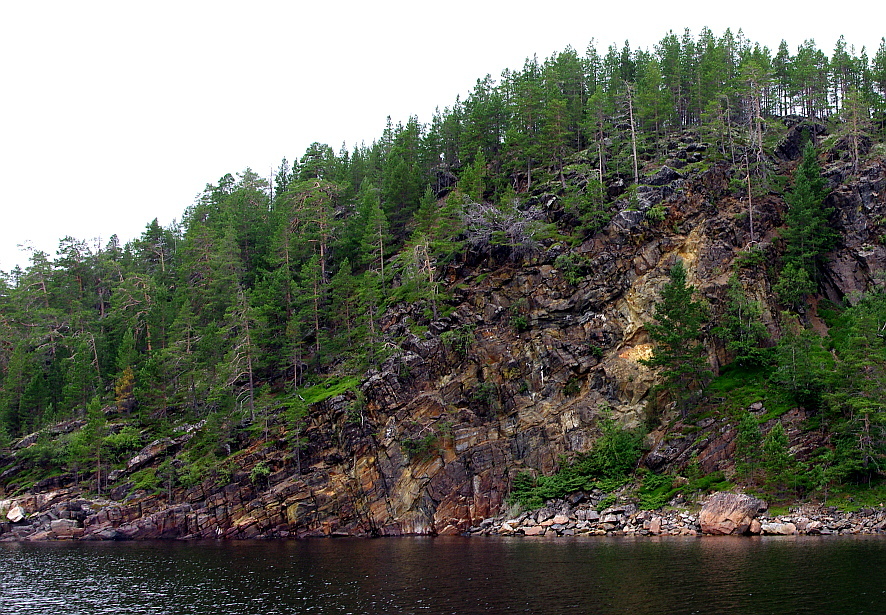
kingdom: Plantae
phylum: Tracheophyta
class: Pinopsida
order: Pinales
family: Pinaceae
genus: Pinus
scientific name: Pinus sylvestris
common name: Scots pine
